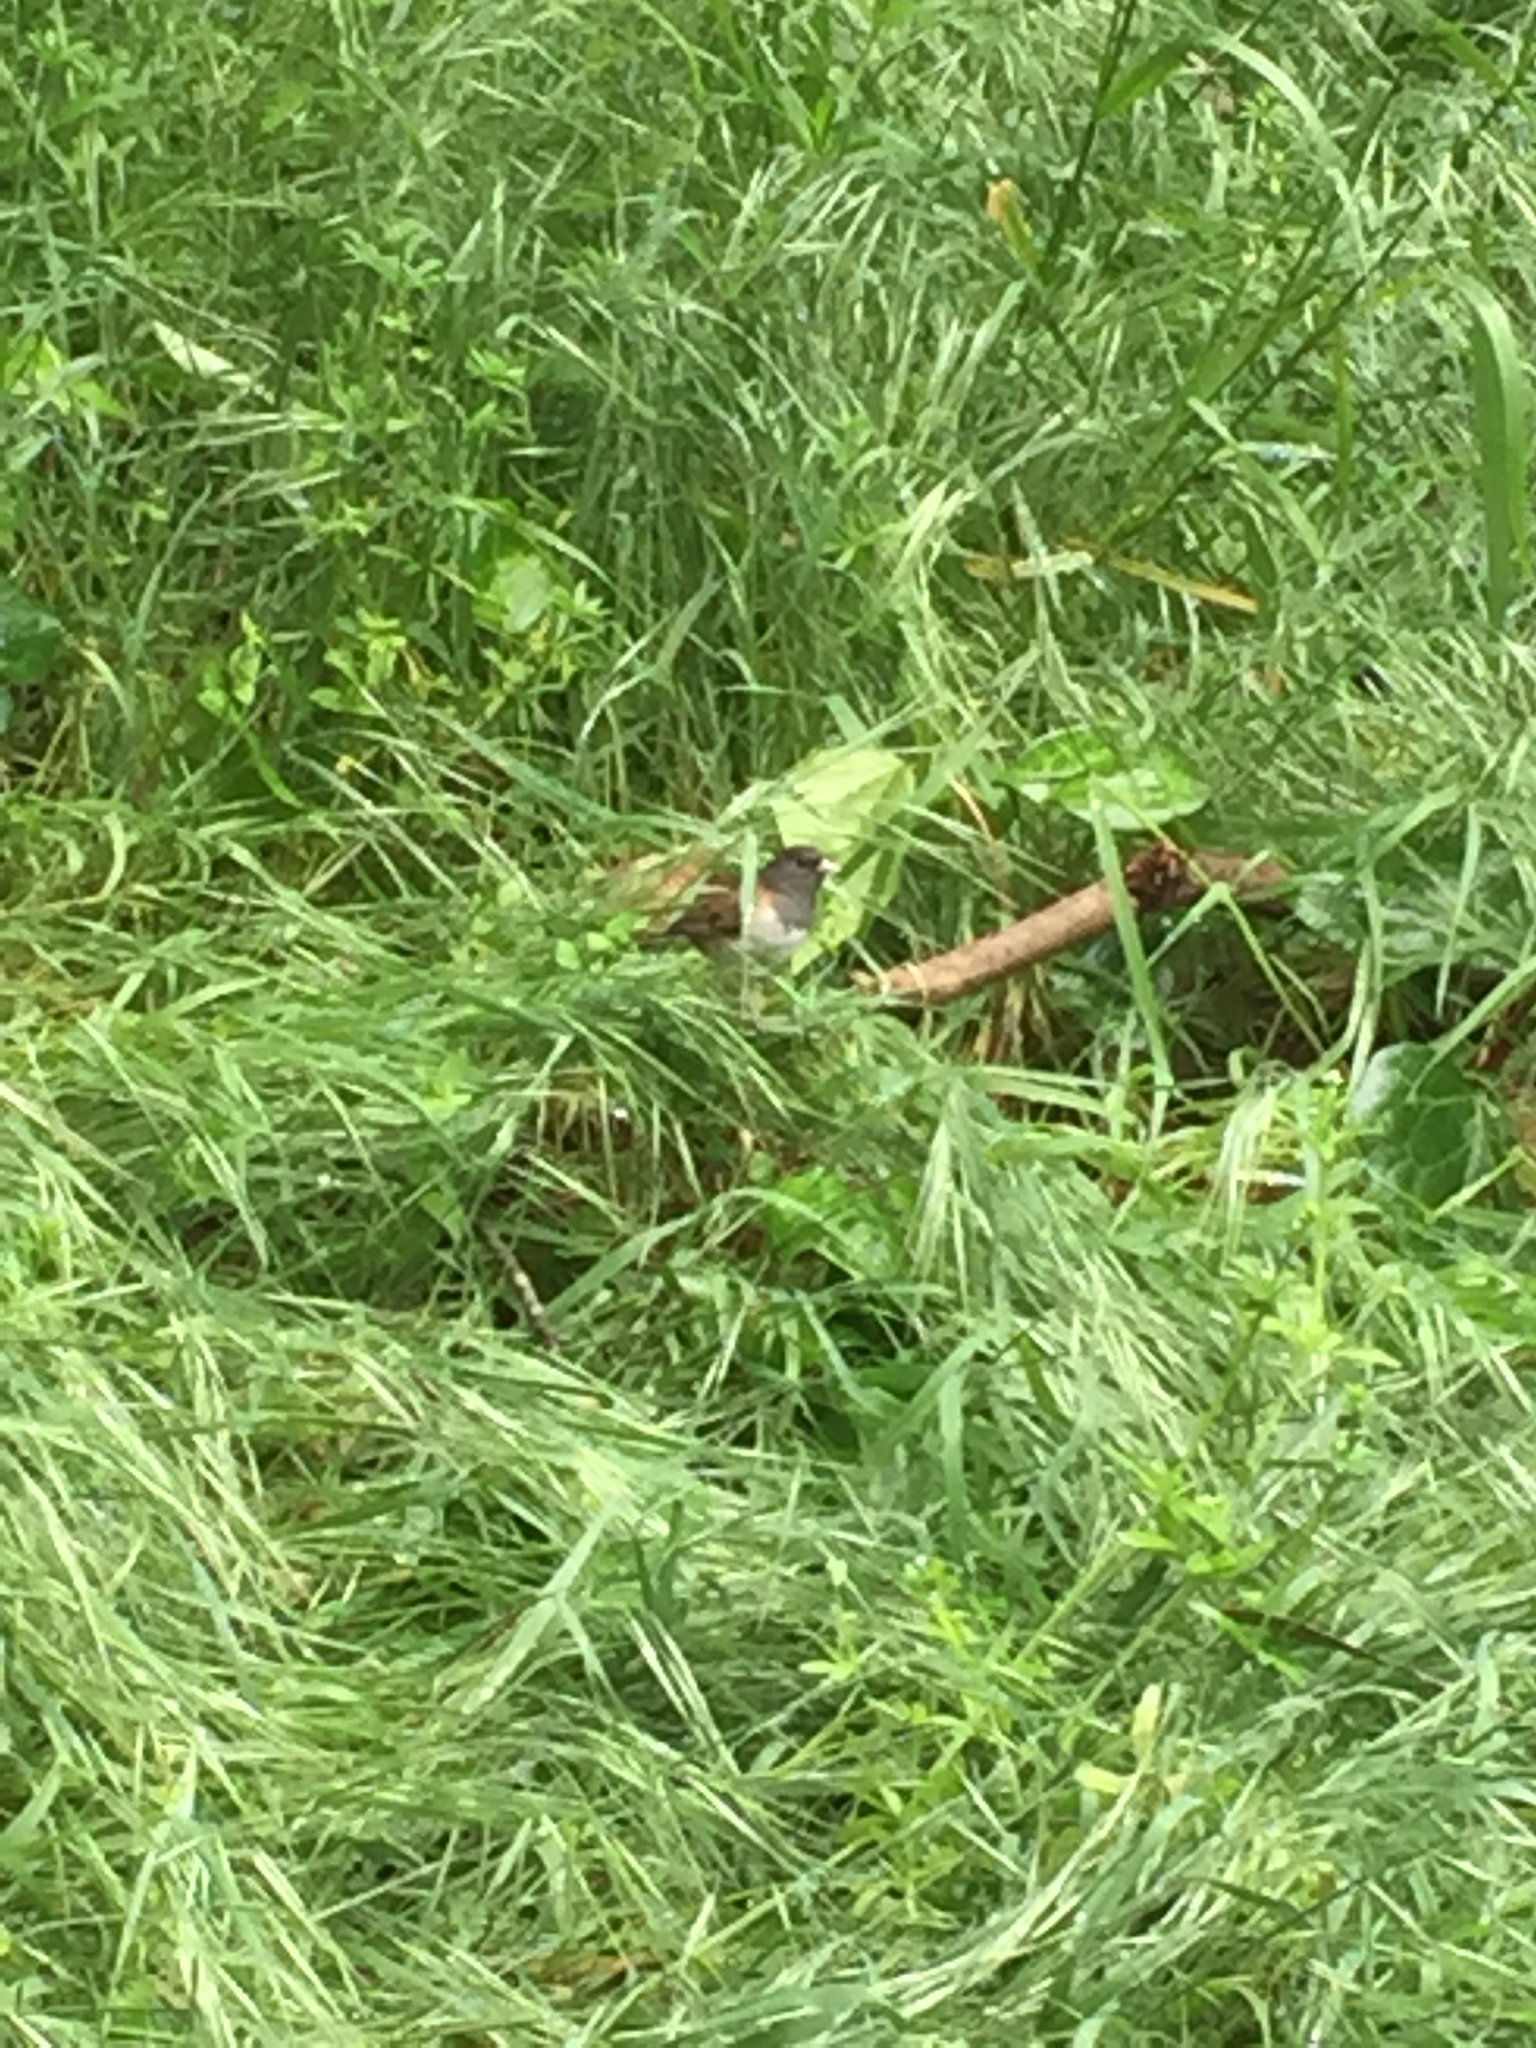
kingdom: Animalia
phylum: Chordata
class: Aves
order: Passeriformes
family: Passerellidae
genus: Junco
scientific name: Junco hyemalis
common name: Dark-eyed junco
